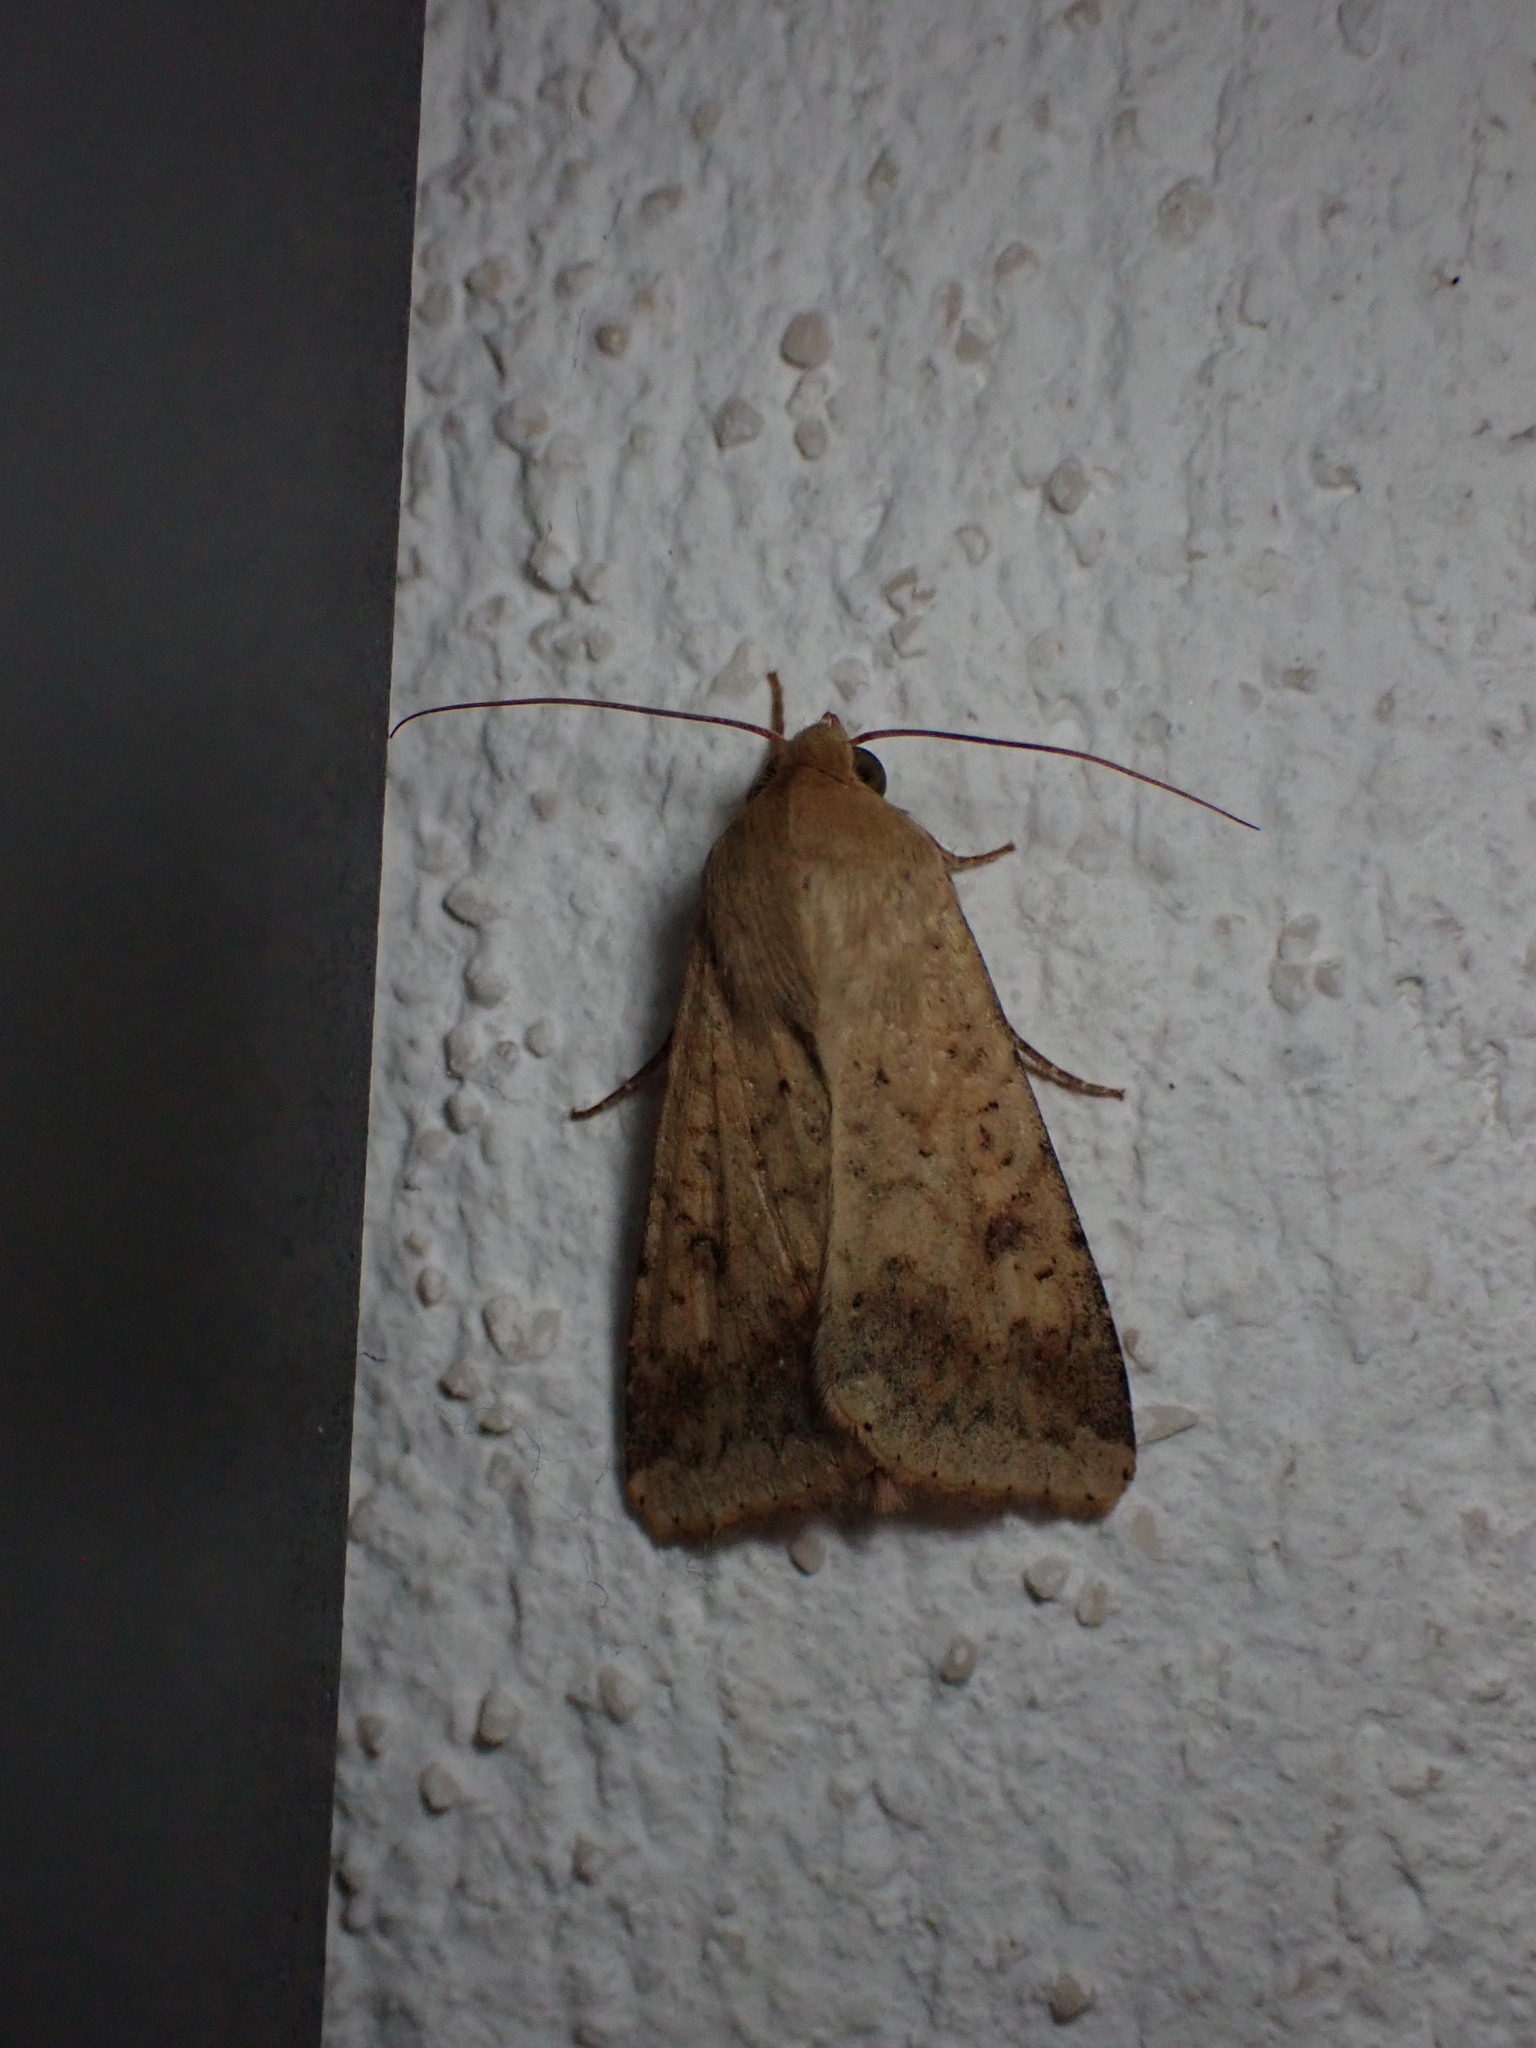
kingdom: Animalia
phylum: Arthropoda
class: Insecta
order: Lepidoptera
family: Noctuidae
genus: Helicoverpa
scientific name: Helicoverpa armigera
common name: Cotton bollworm
